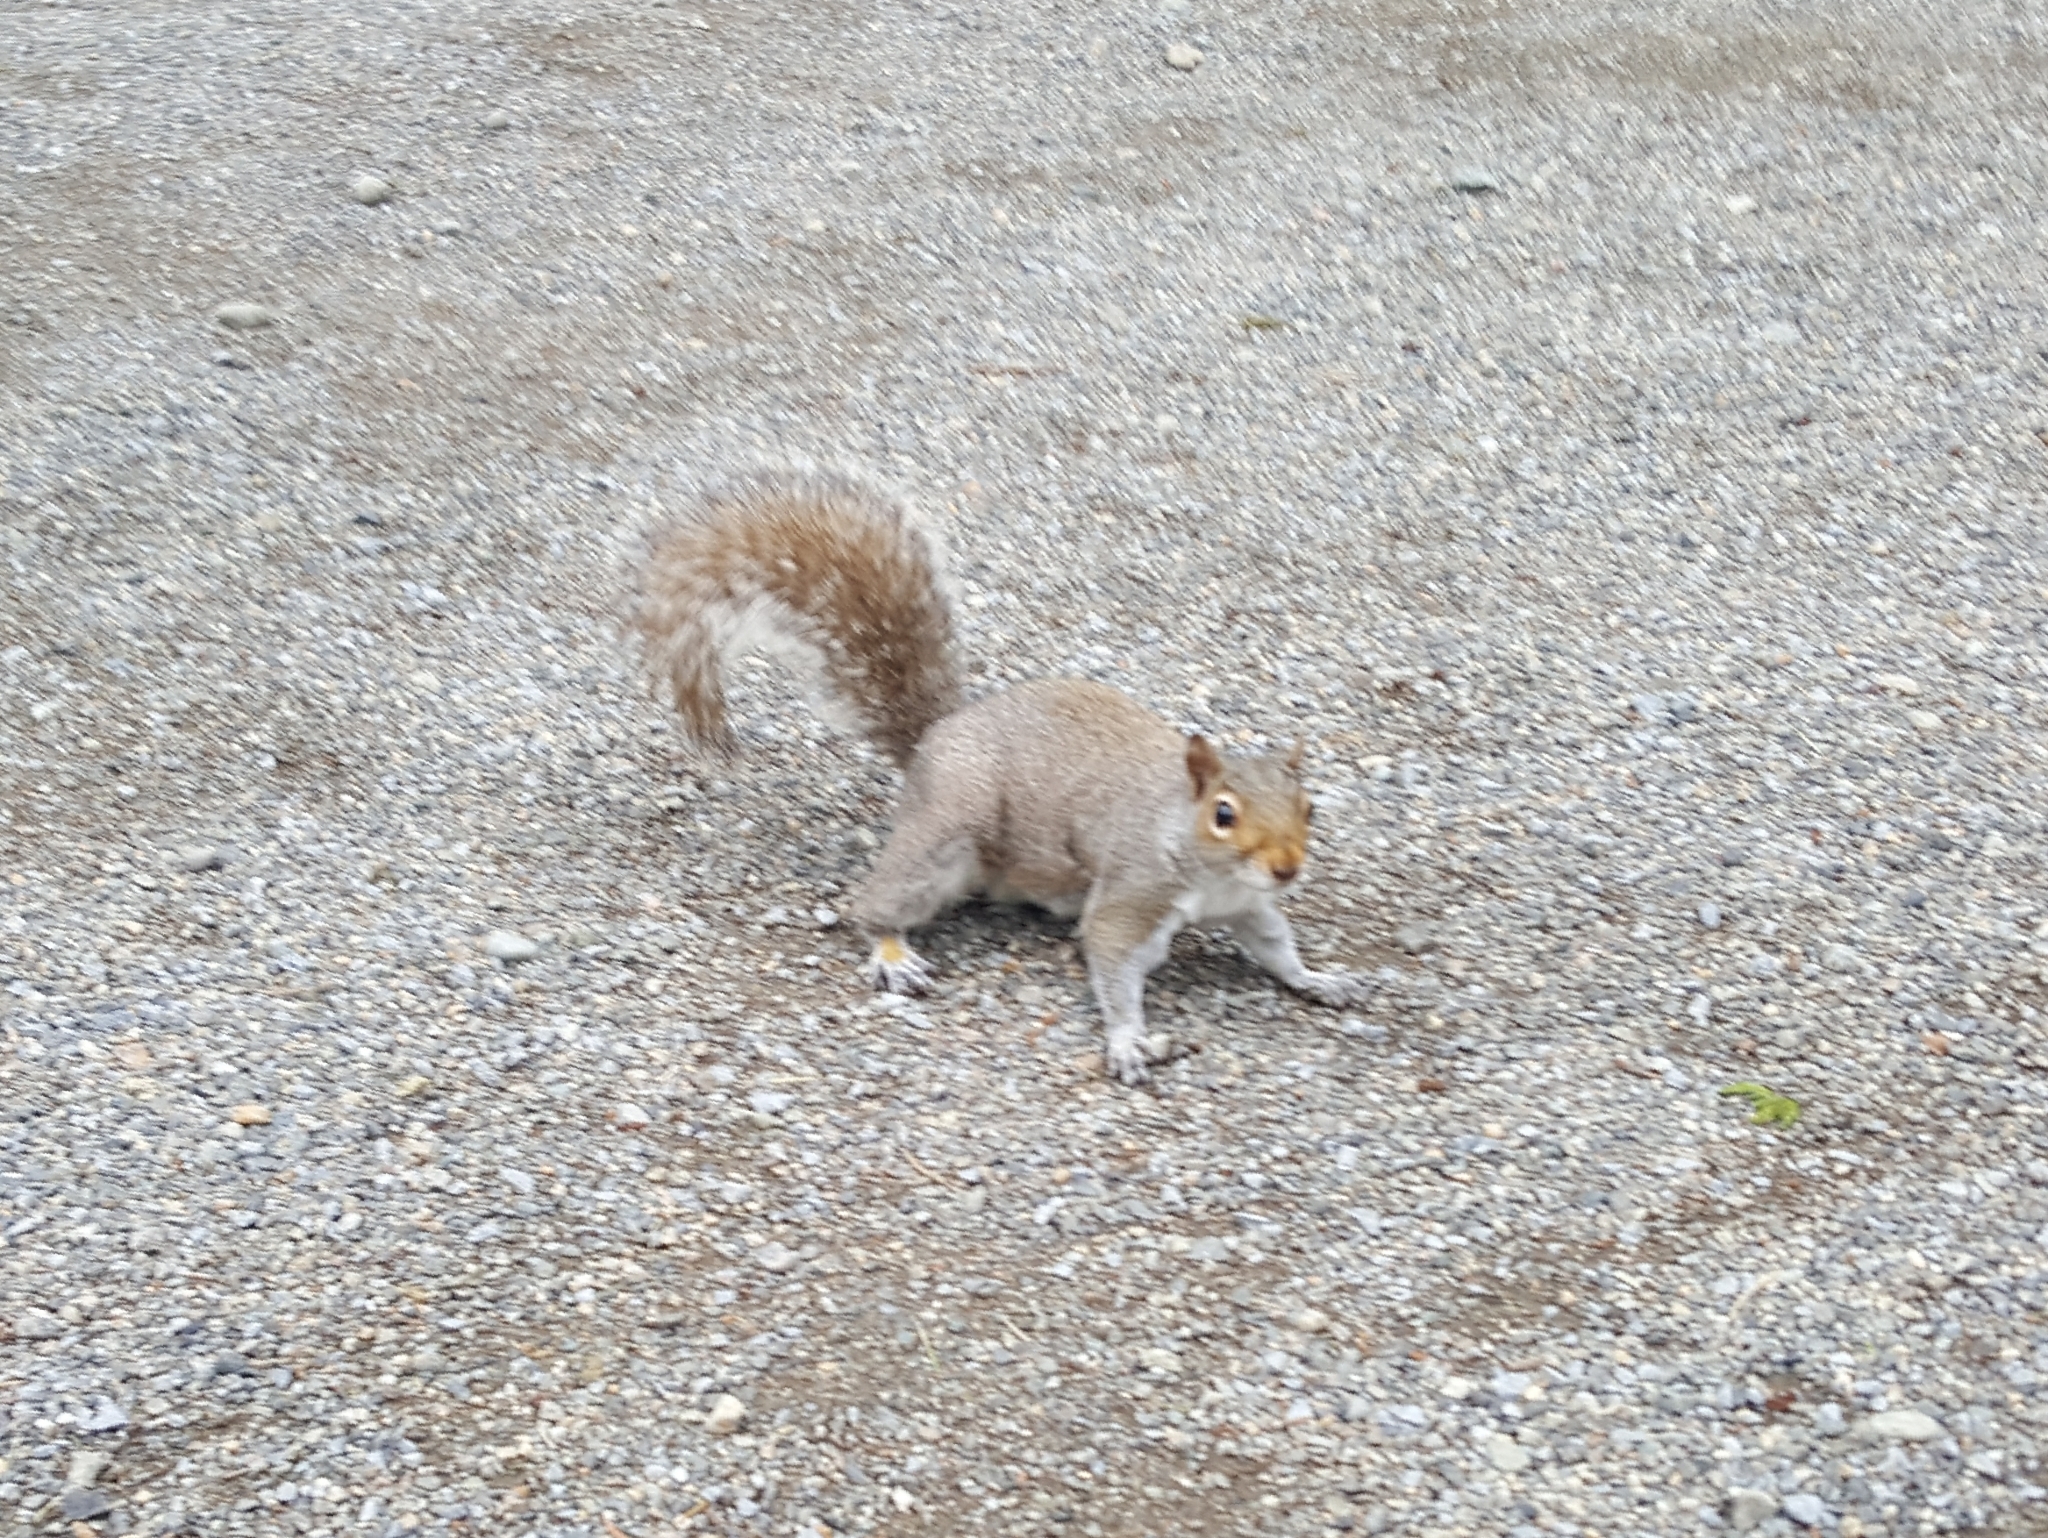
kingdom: Animalia
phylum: Chordata
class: Mammalia
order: Rodentia
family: Sciuridae
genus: Sciurus
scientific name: Sciurus carolinensis
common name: Eastern gray squirrel
